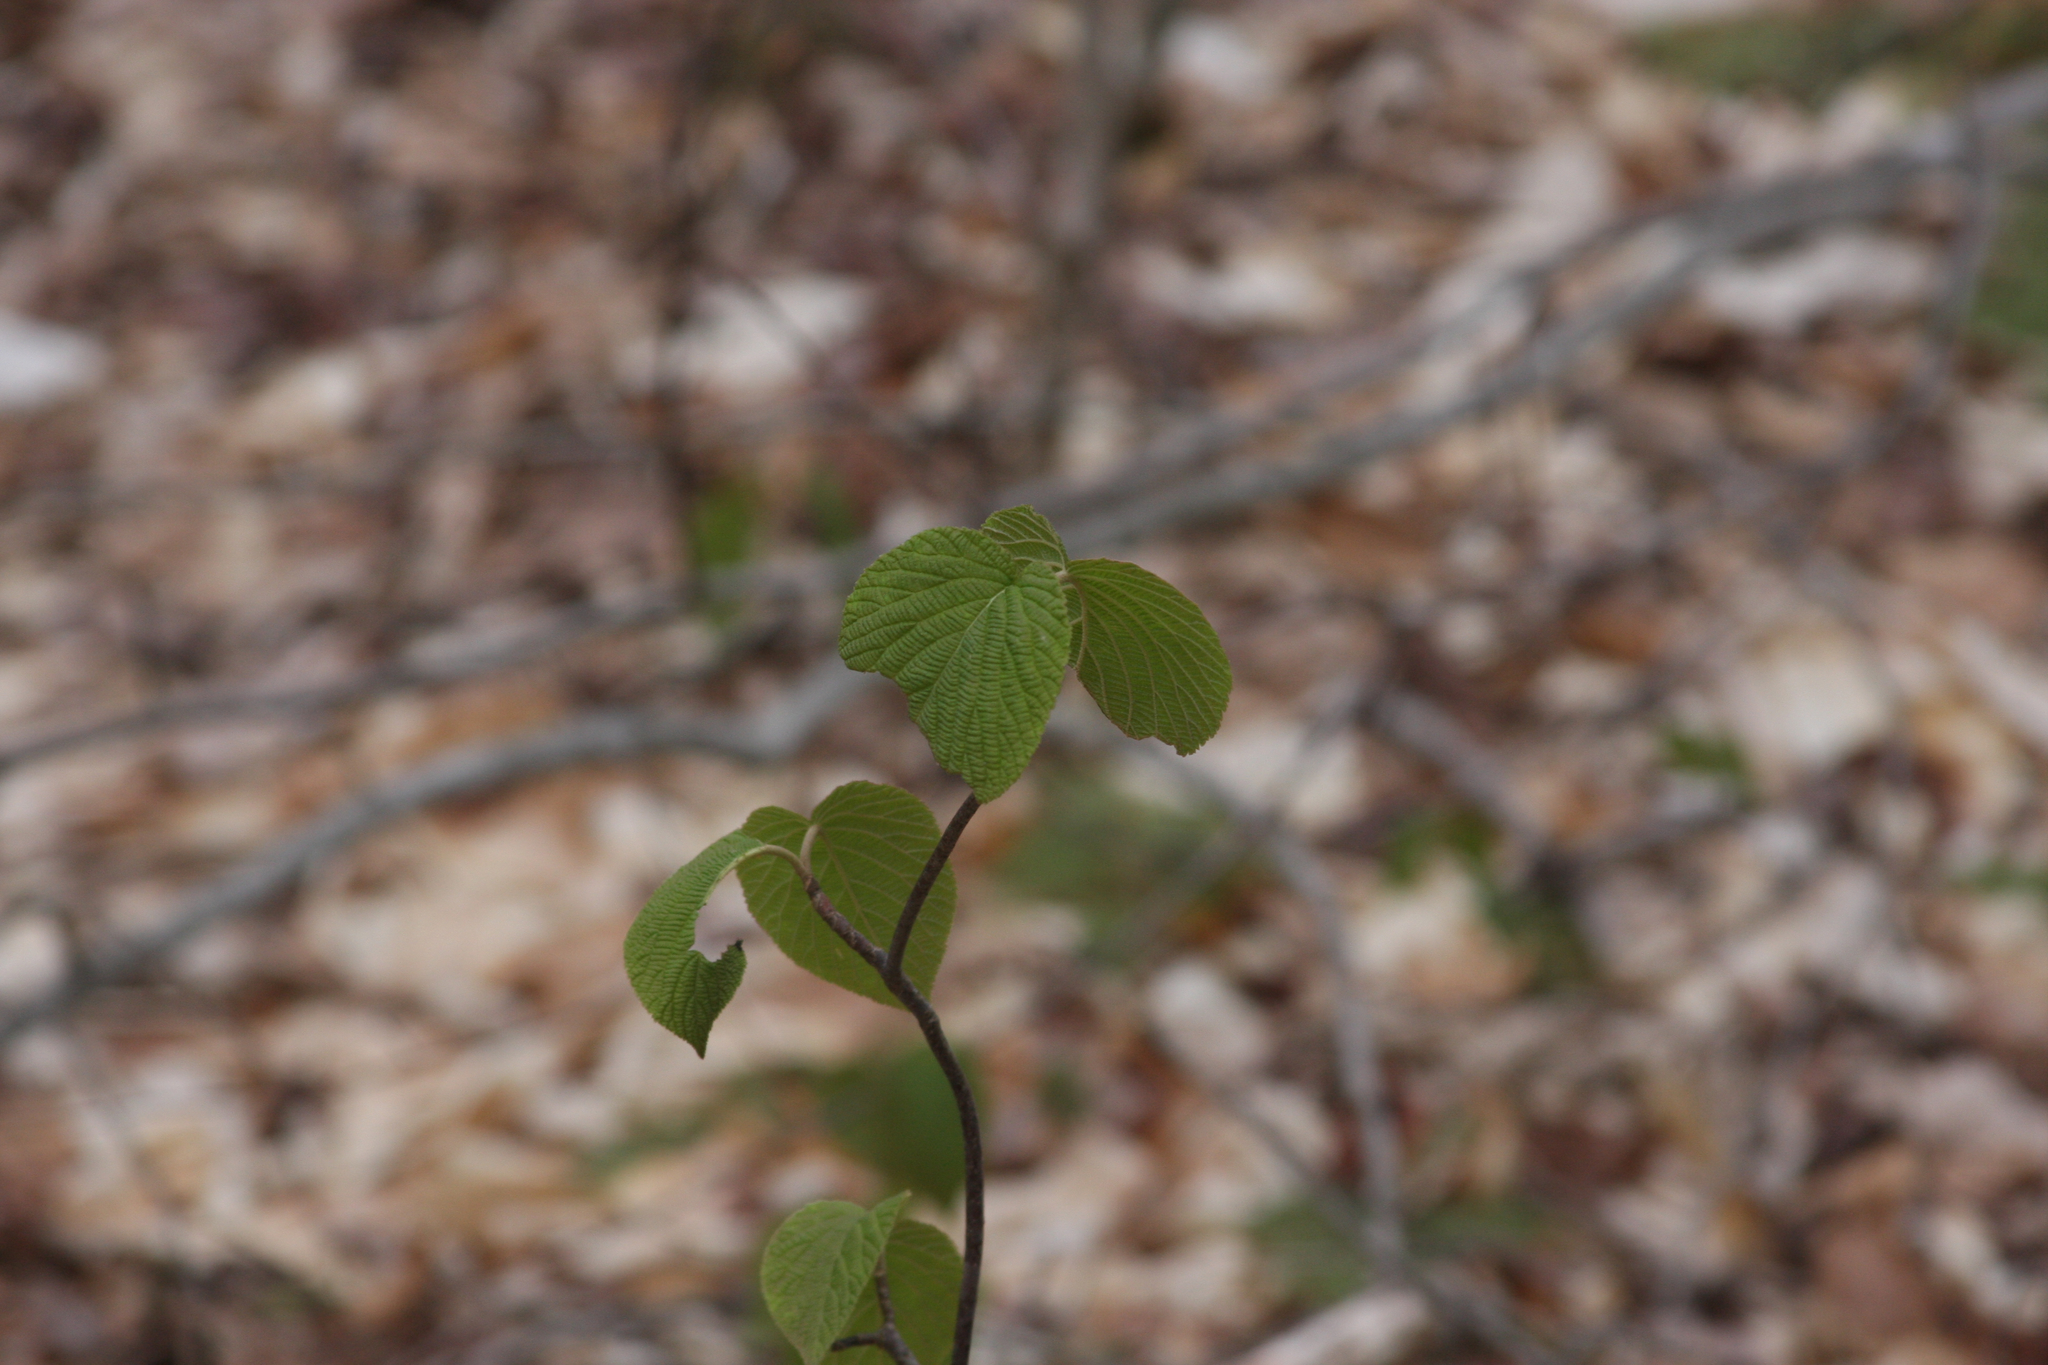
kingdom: Plantae
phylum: Tracheophyta
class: Magnoliopsida
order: Dipsacales
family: Viburnaceae
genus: Viburnum
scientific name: Viburnum lantanoides
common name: Hobblebush
